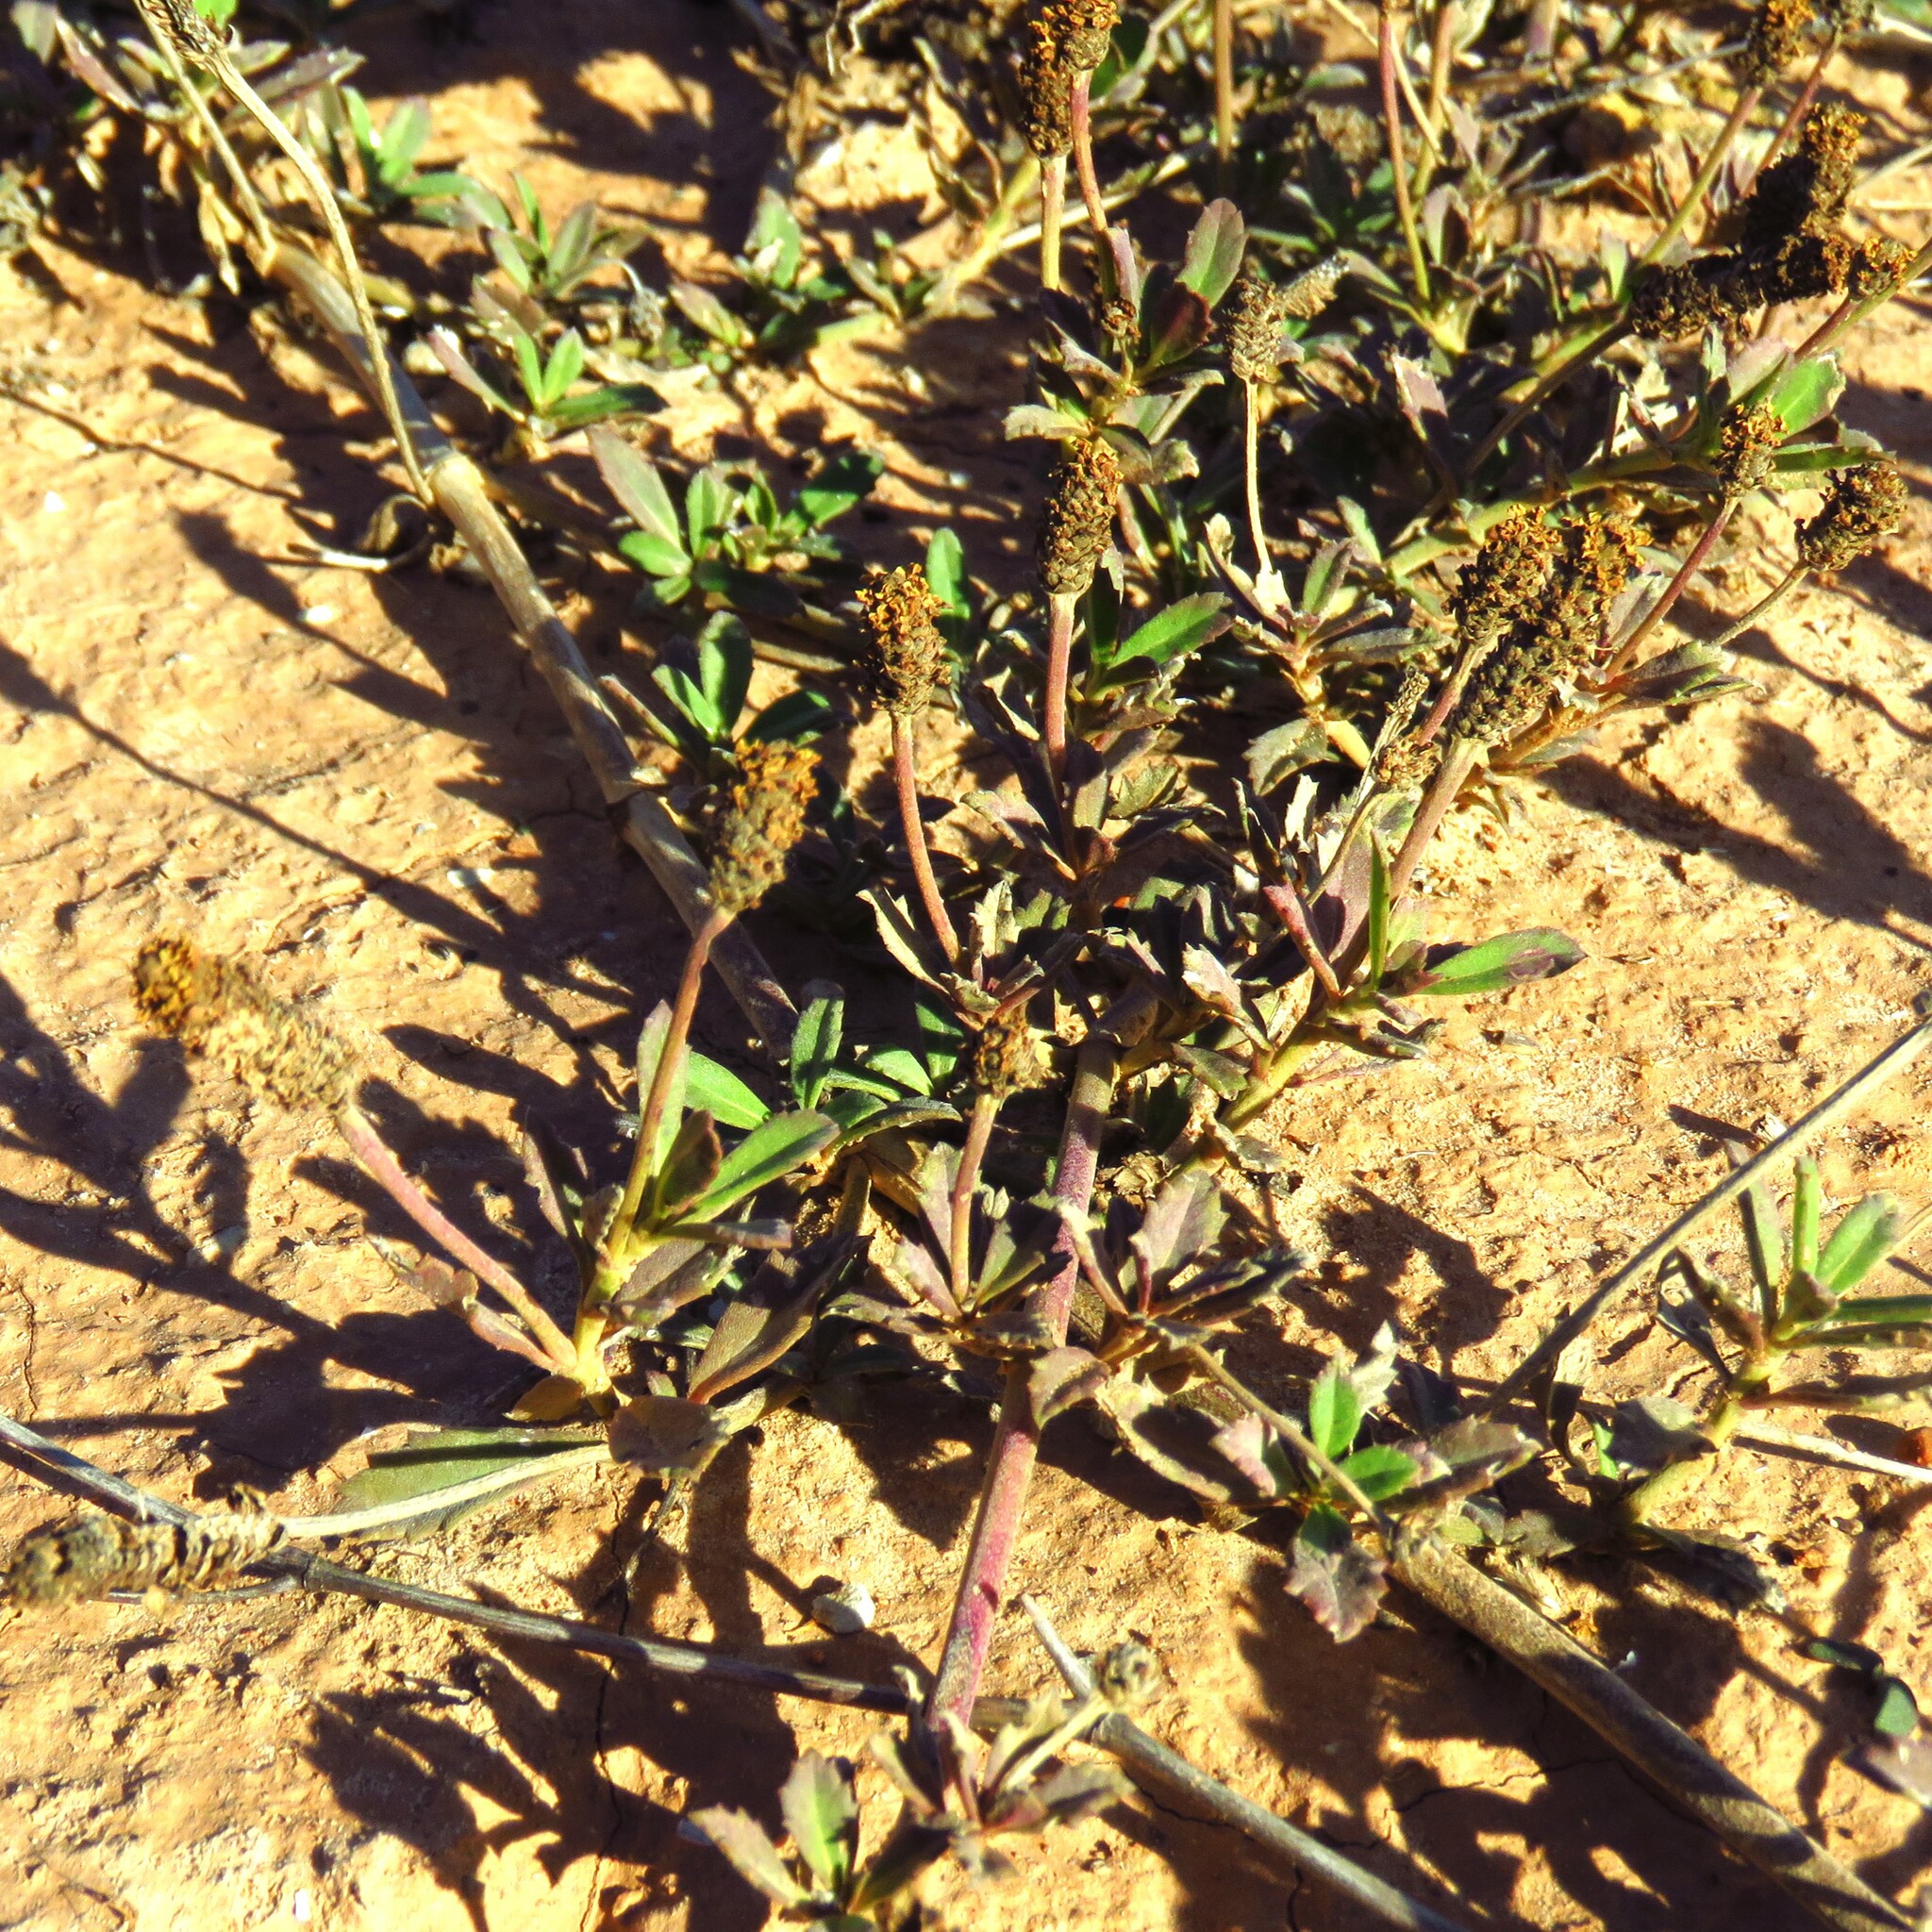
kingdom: Plantae
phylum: Tracheophyta
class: Magnoliopsida
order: Lamiales
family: Verbenaceae
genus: Phyla
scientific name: Phyla nodiflora
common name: Frogfruit
